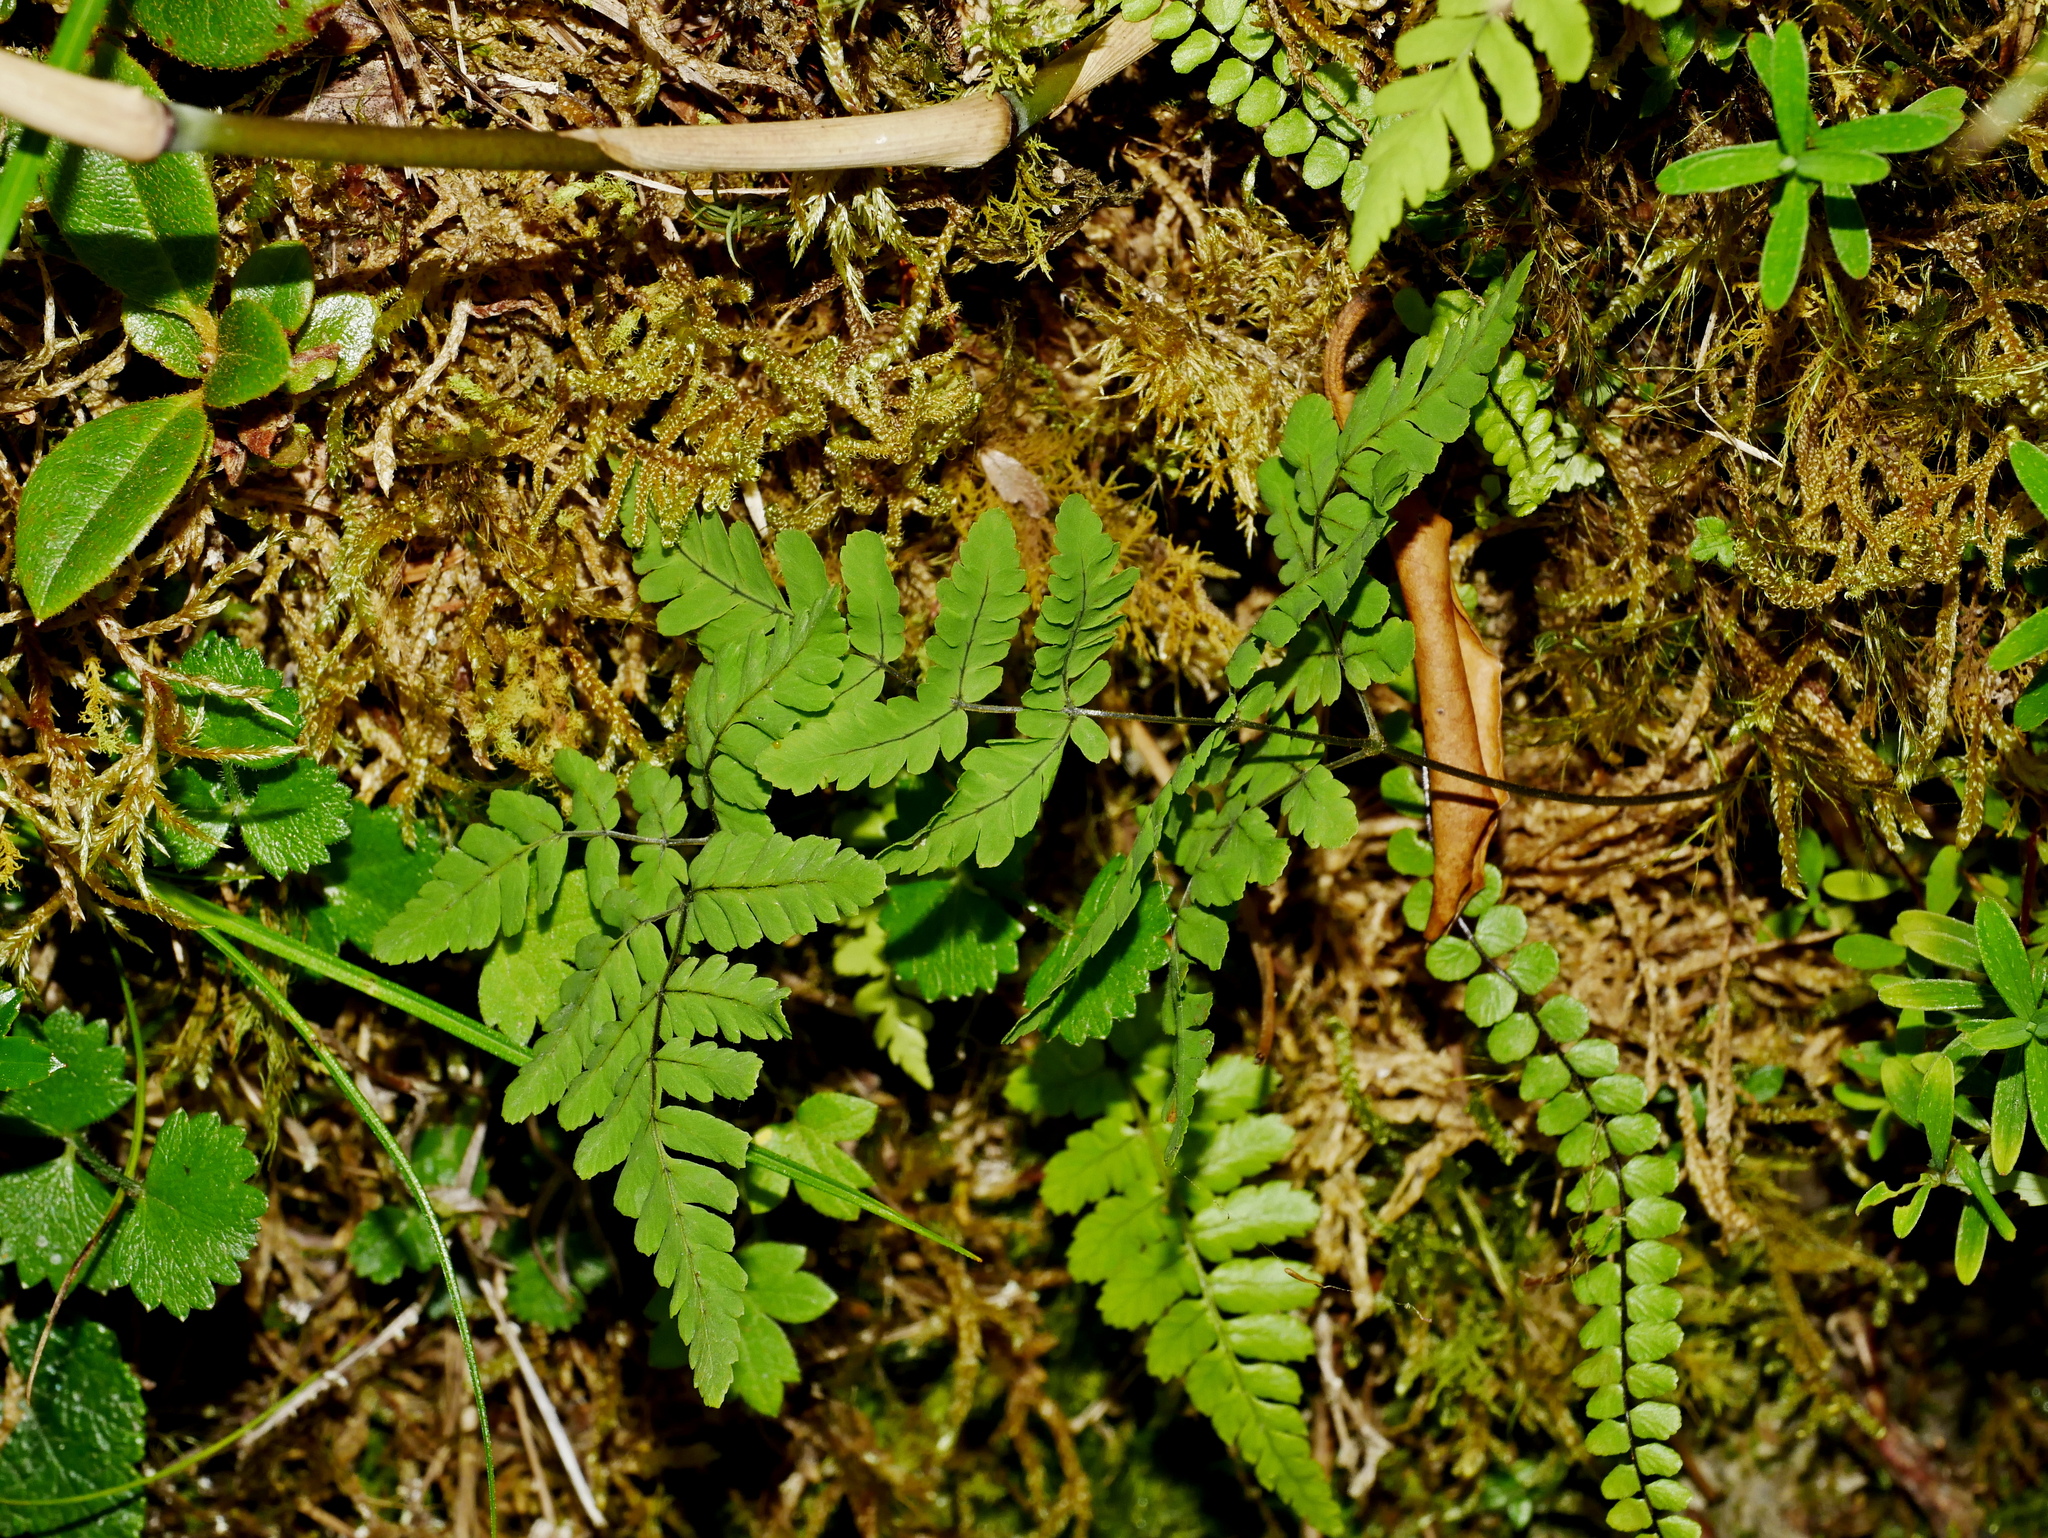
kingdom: Plantae
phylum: Tracheophyta
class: Polypodiopsida
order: Polypodiales
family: Cystopteridaceae
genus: Gymnocarpium
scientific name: Gymnocarpium remotepinnatum
